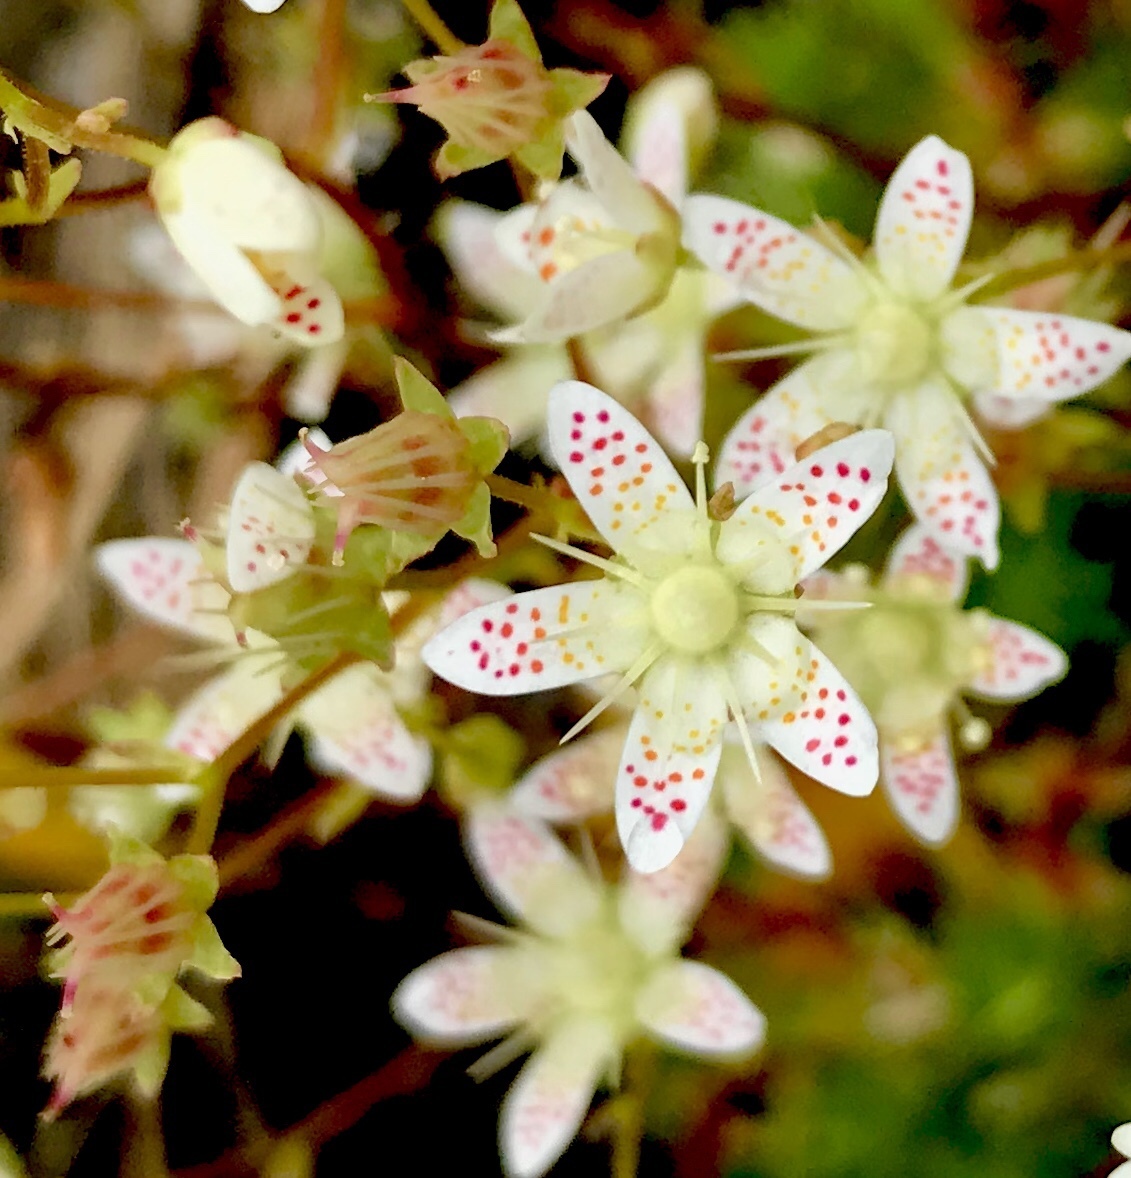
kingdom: Plantae
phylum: Tracheophyta
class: Magnoliopsida
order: Saxifragales
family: Saxifragaceae
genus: Saxifraga
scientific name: Saxifraga bronchialis
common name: Matted saxifrage
